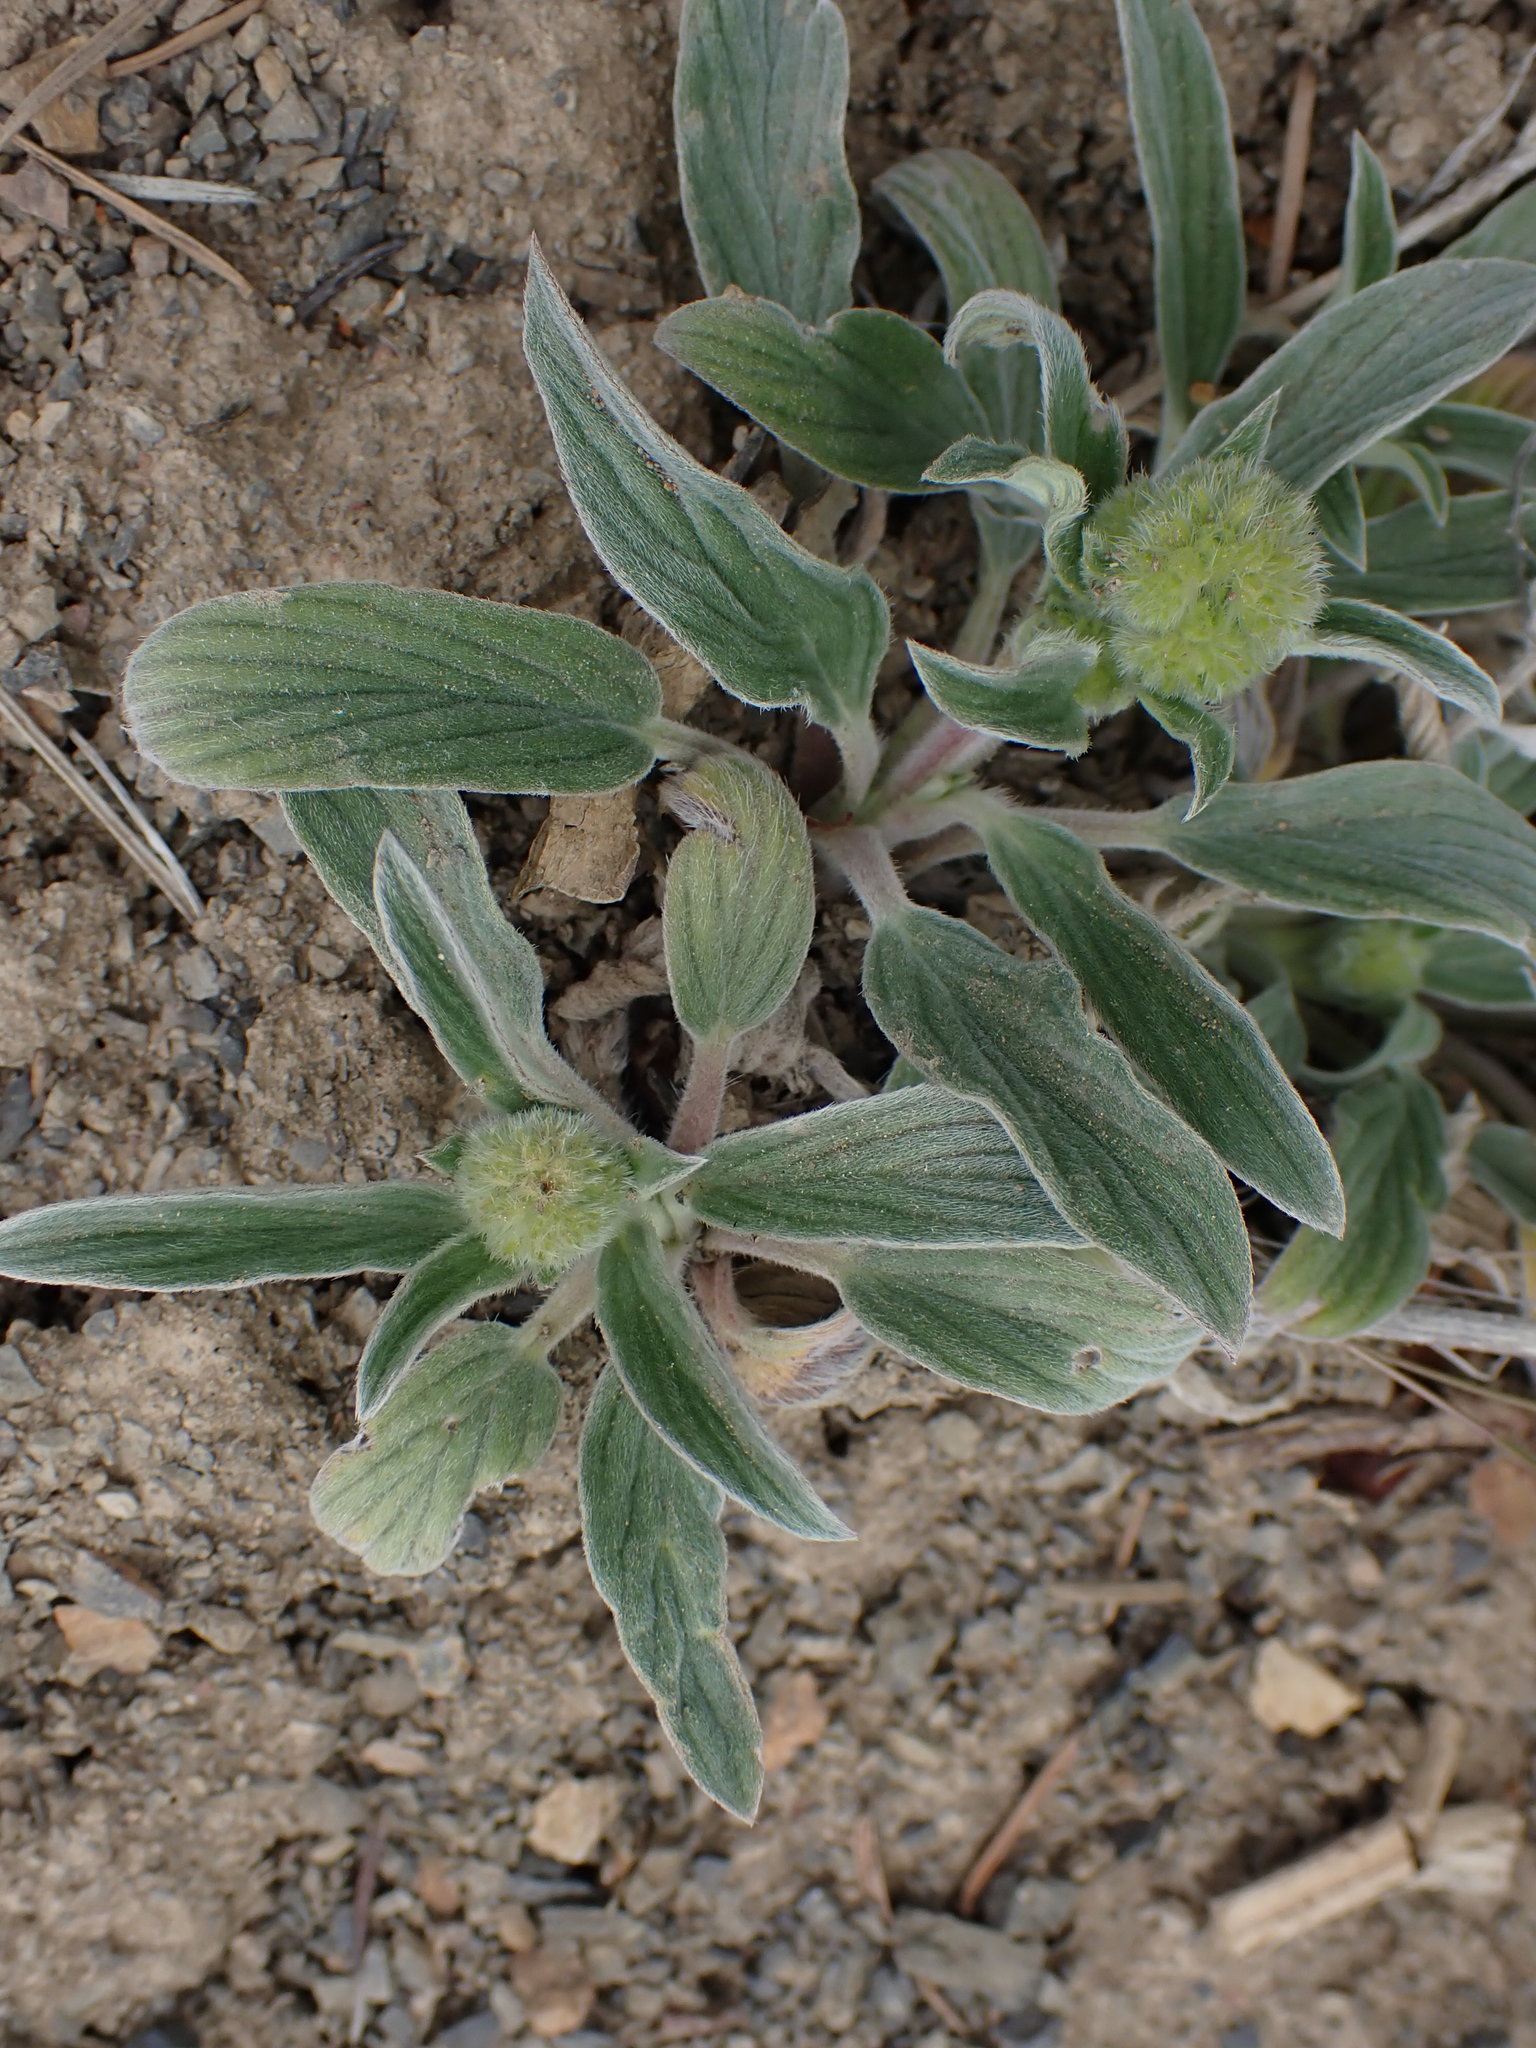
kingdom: Plantae
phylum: Tracheophyta
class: Magnoliopsida
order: Boraginales
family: Hydrophyllaceae
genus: Phacelia
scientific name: Phacelia hastata
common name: Silver-leaved phacelia
